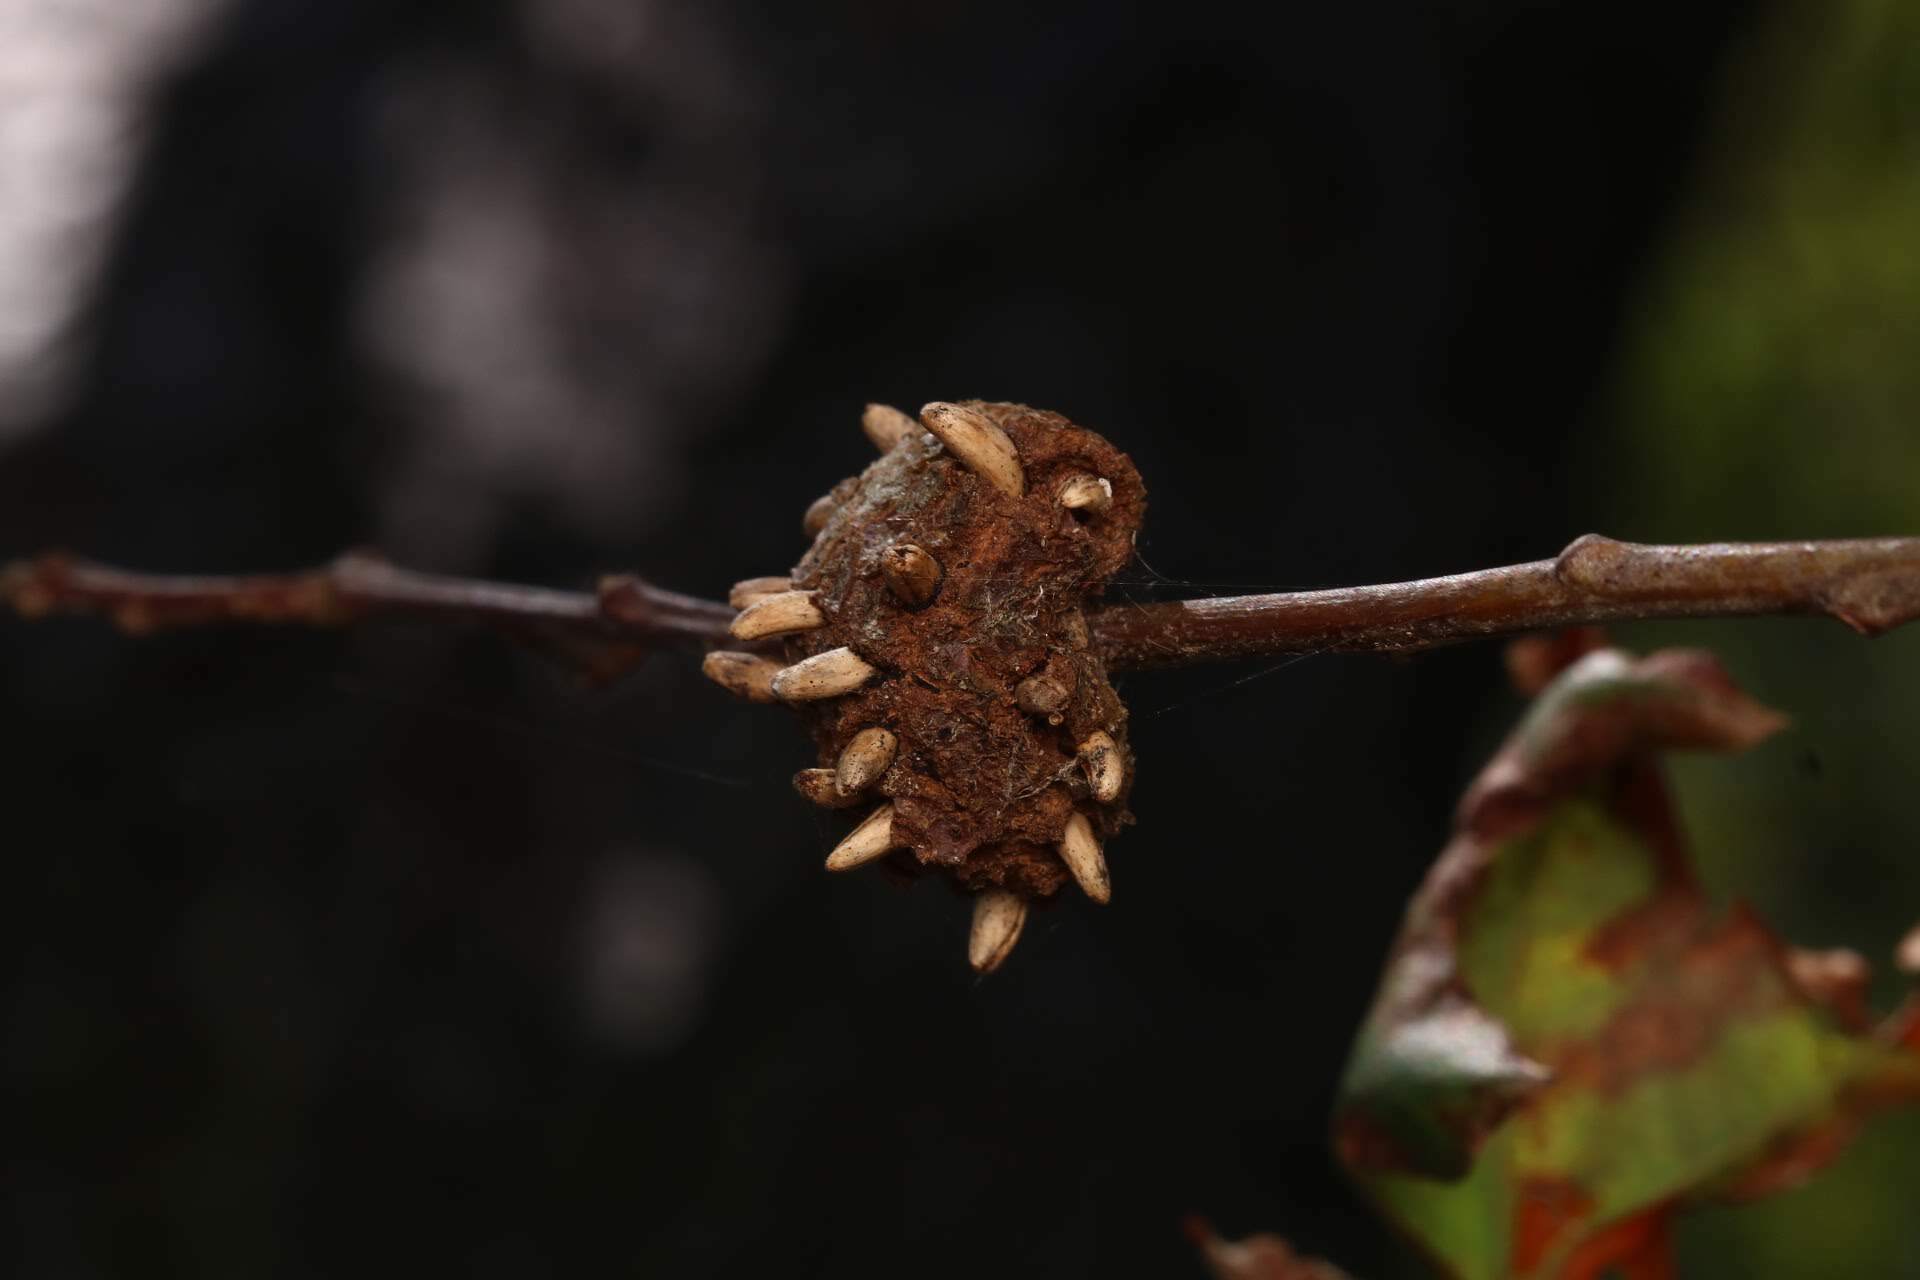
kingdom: Animalia
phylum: Arthropoda
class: Insecta
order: Hymenoptera
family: Cynipidae
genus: Callirhytis
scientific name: Callirhytis
